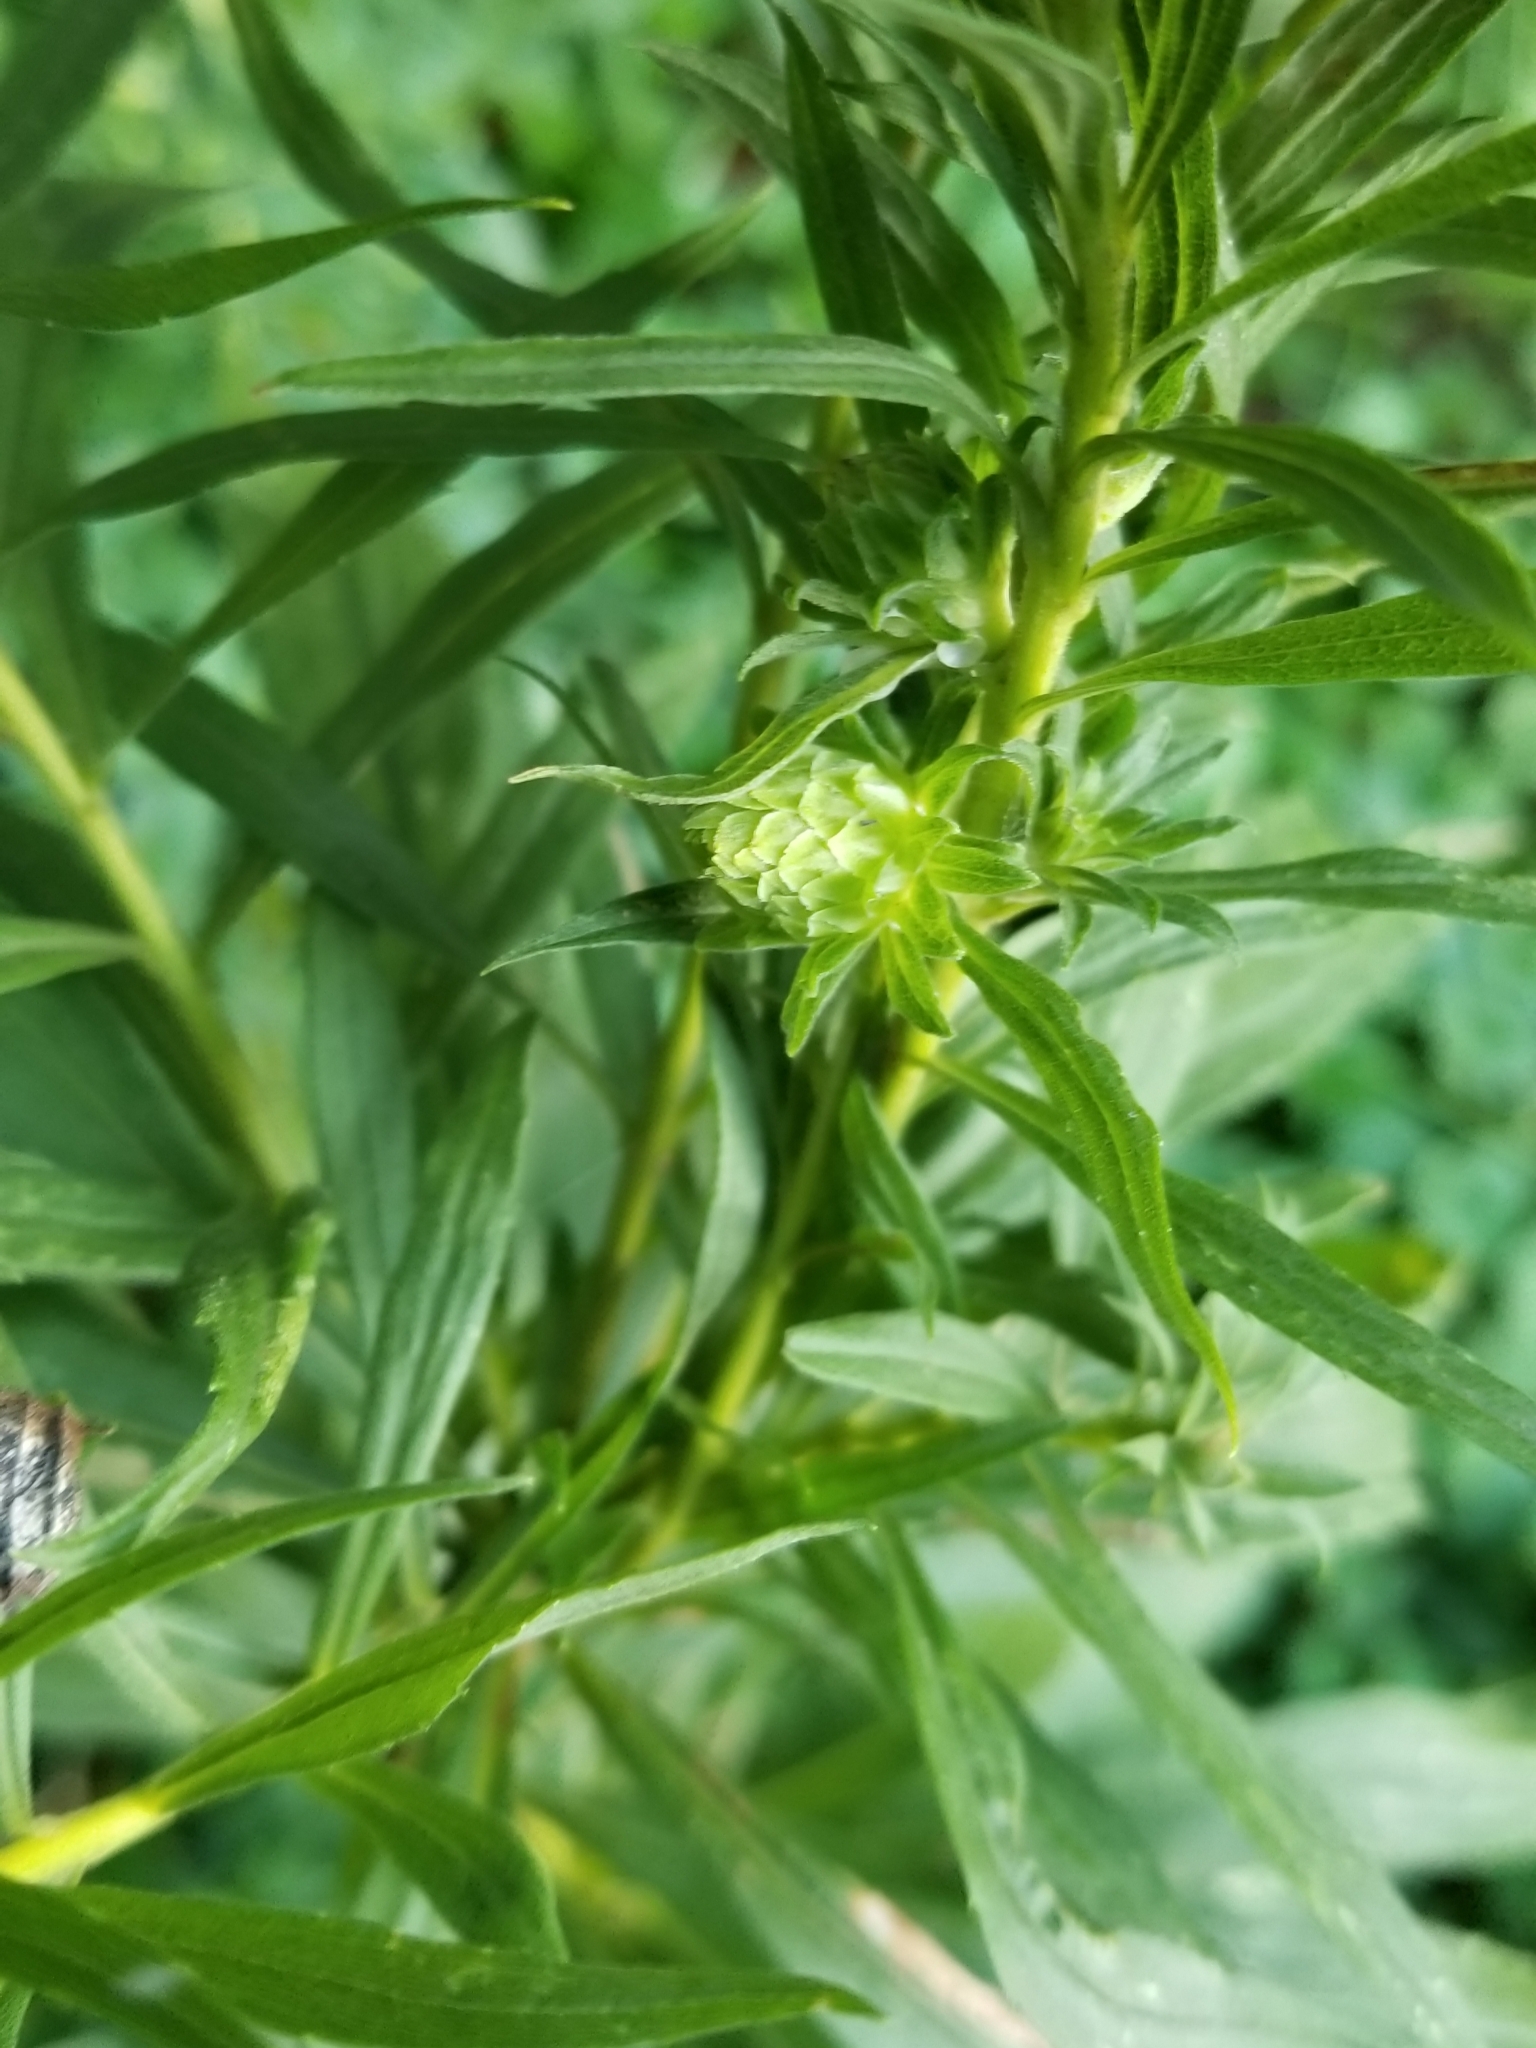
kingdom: Animalia
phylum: Arthropoda
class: Insecta
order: Diptera
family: Tephritidae
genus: Procecidochares
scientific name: Procecidochares atra
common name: Goldenrod brussels sprout gall fly
